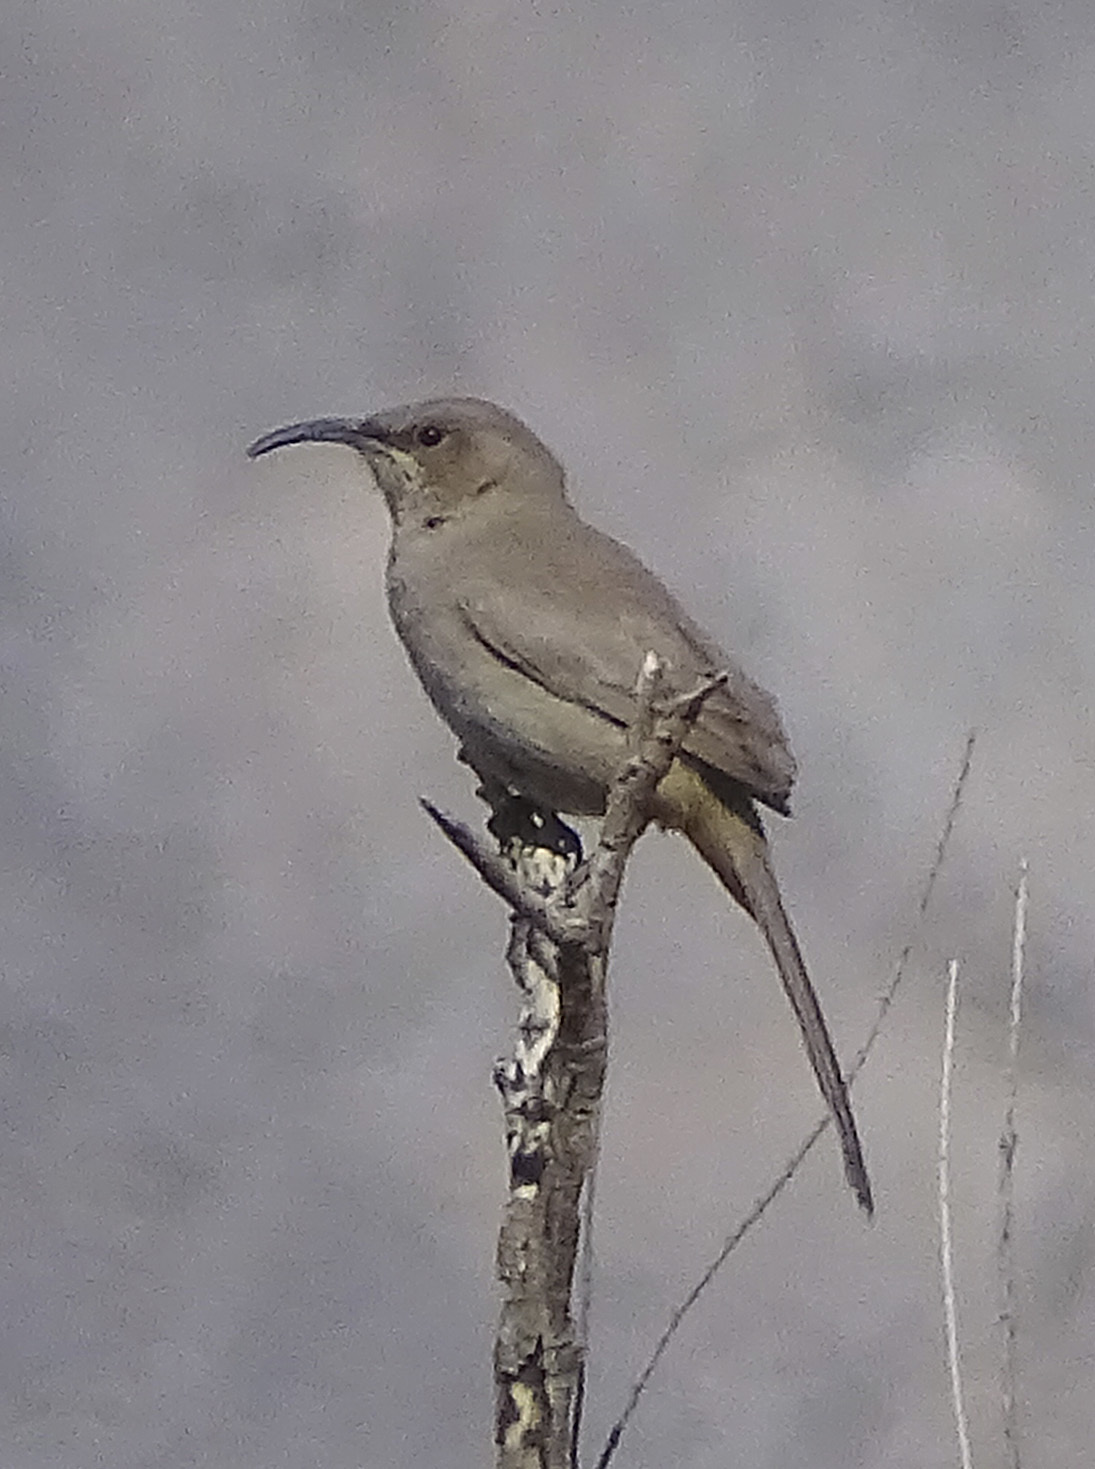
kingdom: Animalia
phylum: Chordata
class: Aves
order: Passeriformes
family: Mimidae
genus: Toxostoma
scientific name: Toxostoma lecontei
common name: Le conte's thrasher
